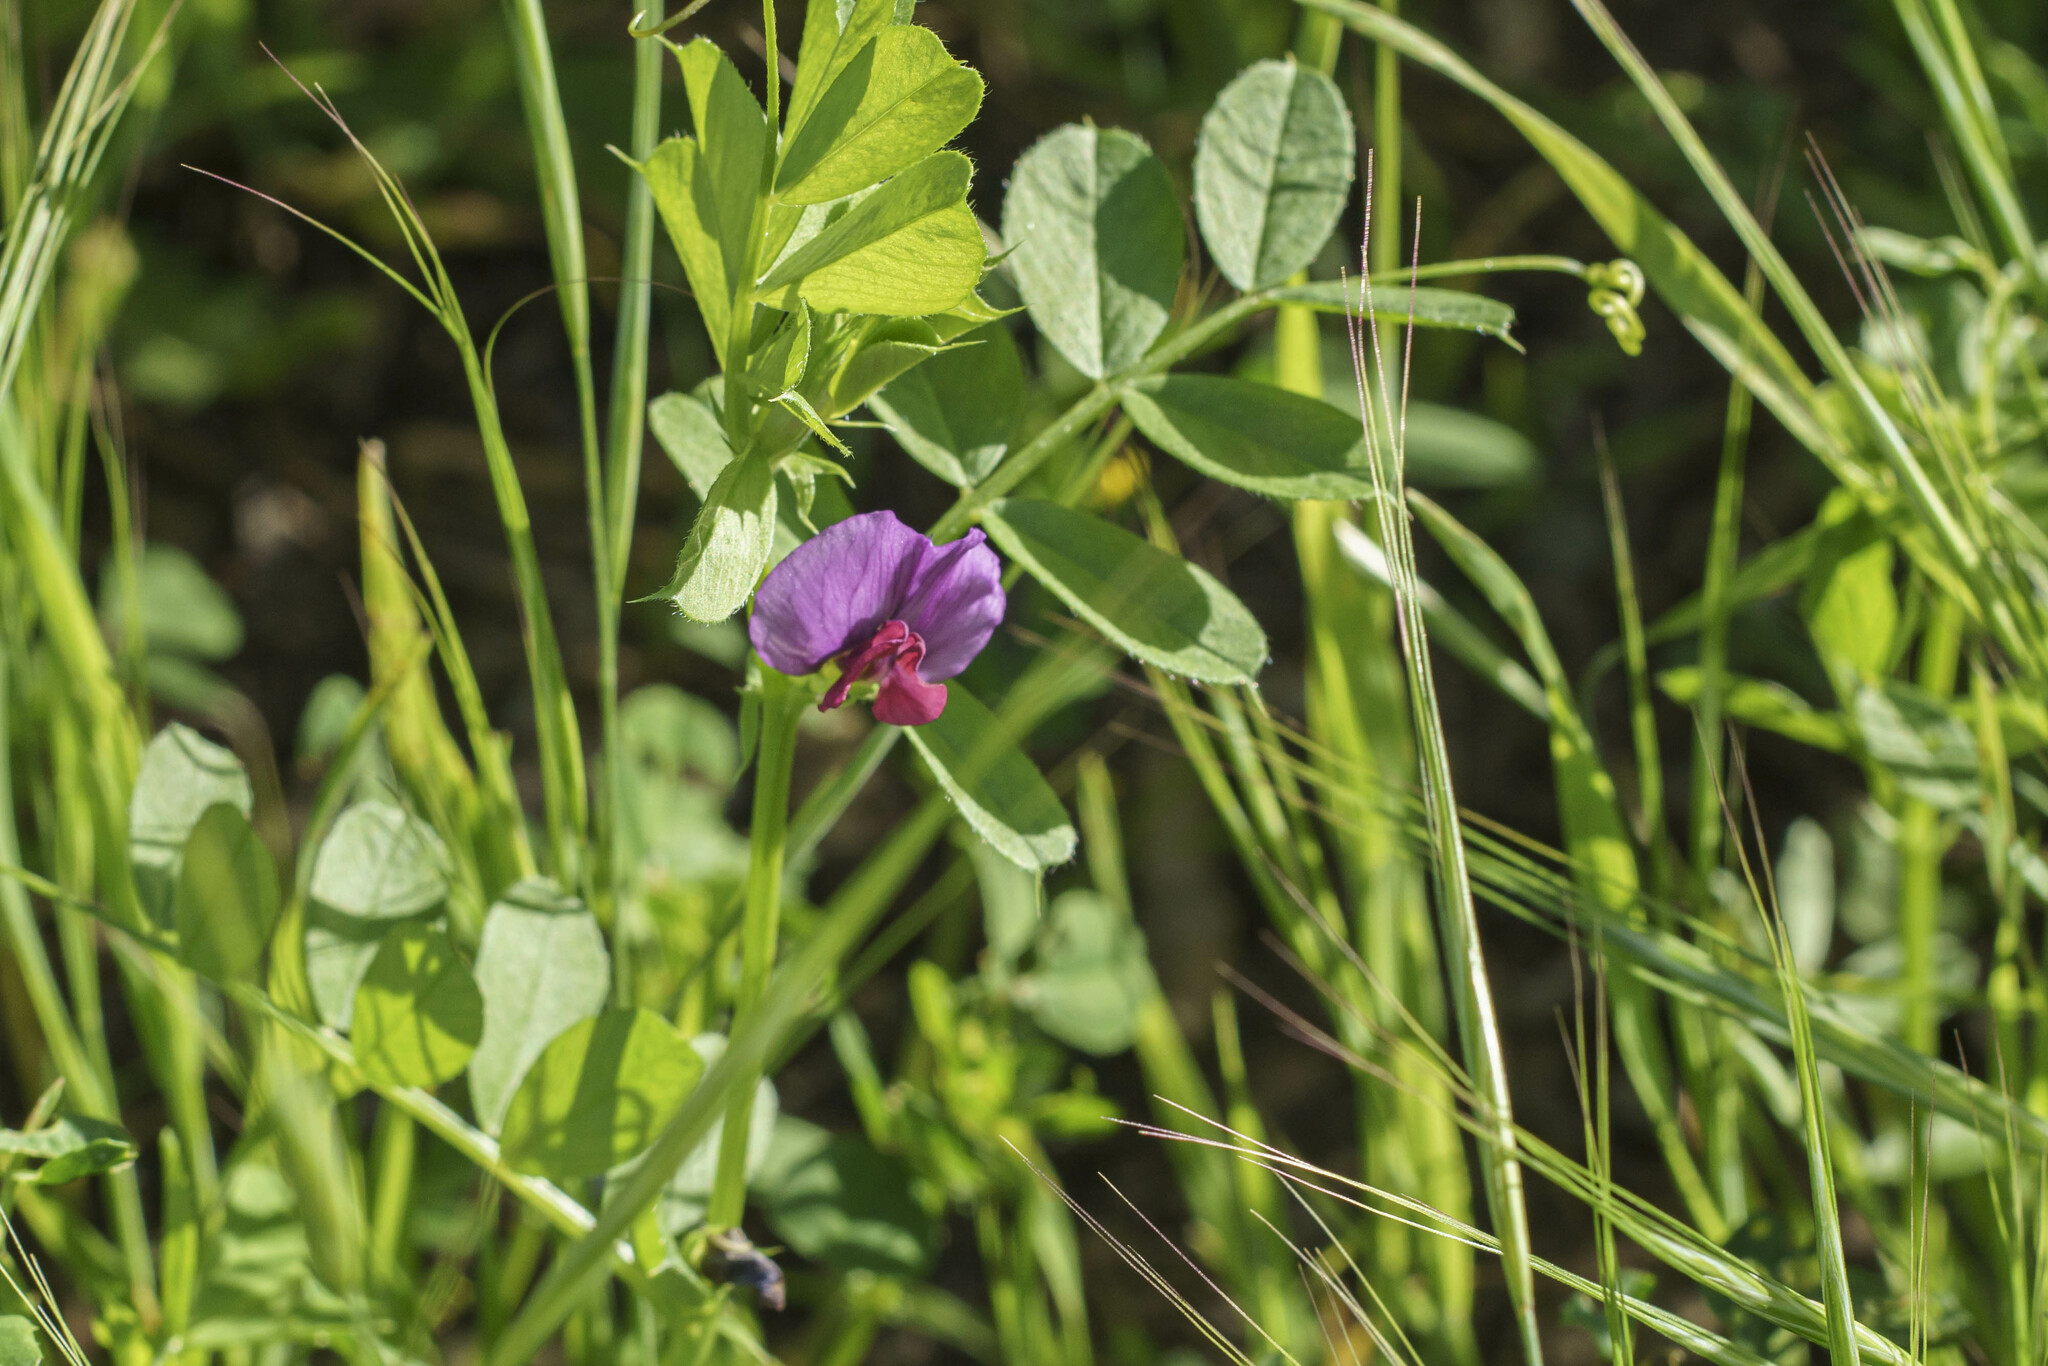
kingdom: Plantae
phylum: Tracheophyta
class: Magnoliopsida
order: Fabales
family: Fabaceae
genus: Vicia
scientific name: Vicia sativa
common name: Garden vetch
